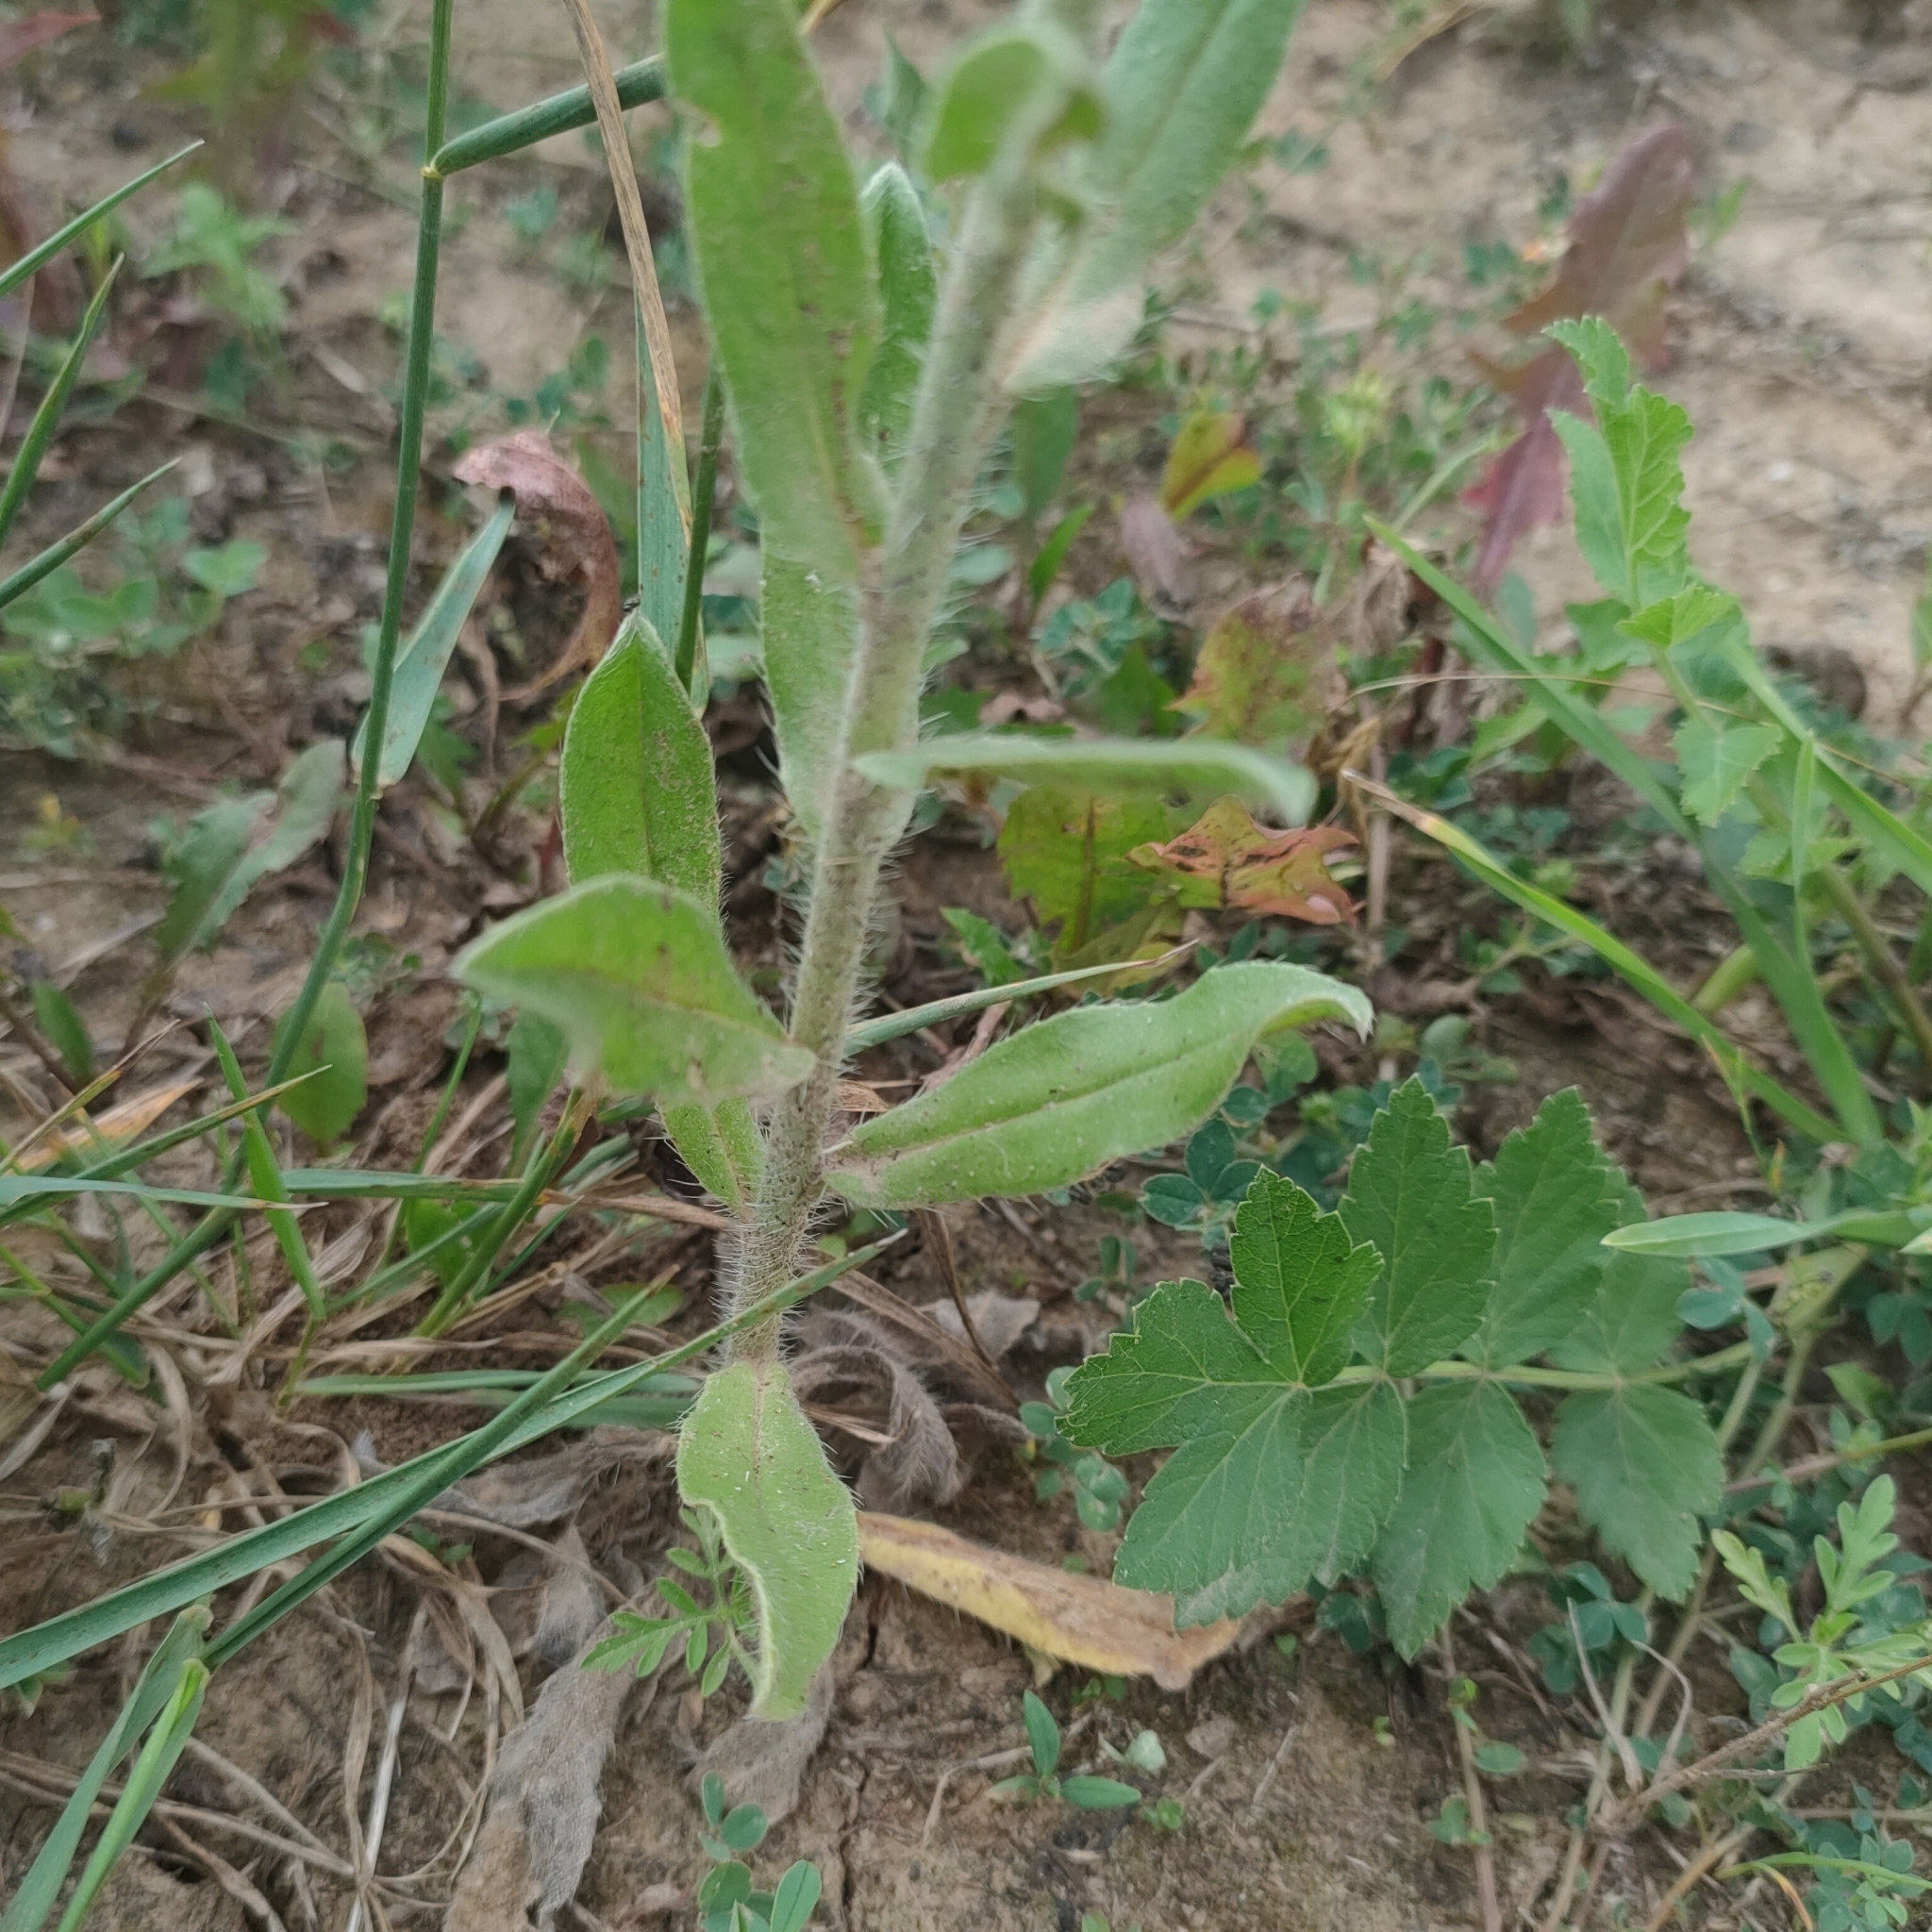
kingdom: Plantae
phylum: Tracheophyta
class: Magnoliopsida
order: Boraginales
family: Boraginaceae
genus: Echium
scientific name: Echium vulgare
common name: Common viper's bugloss
